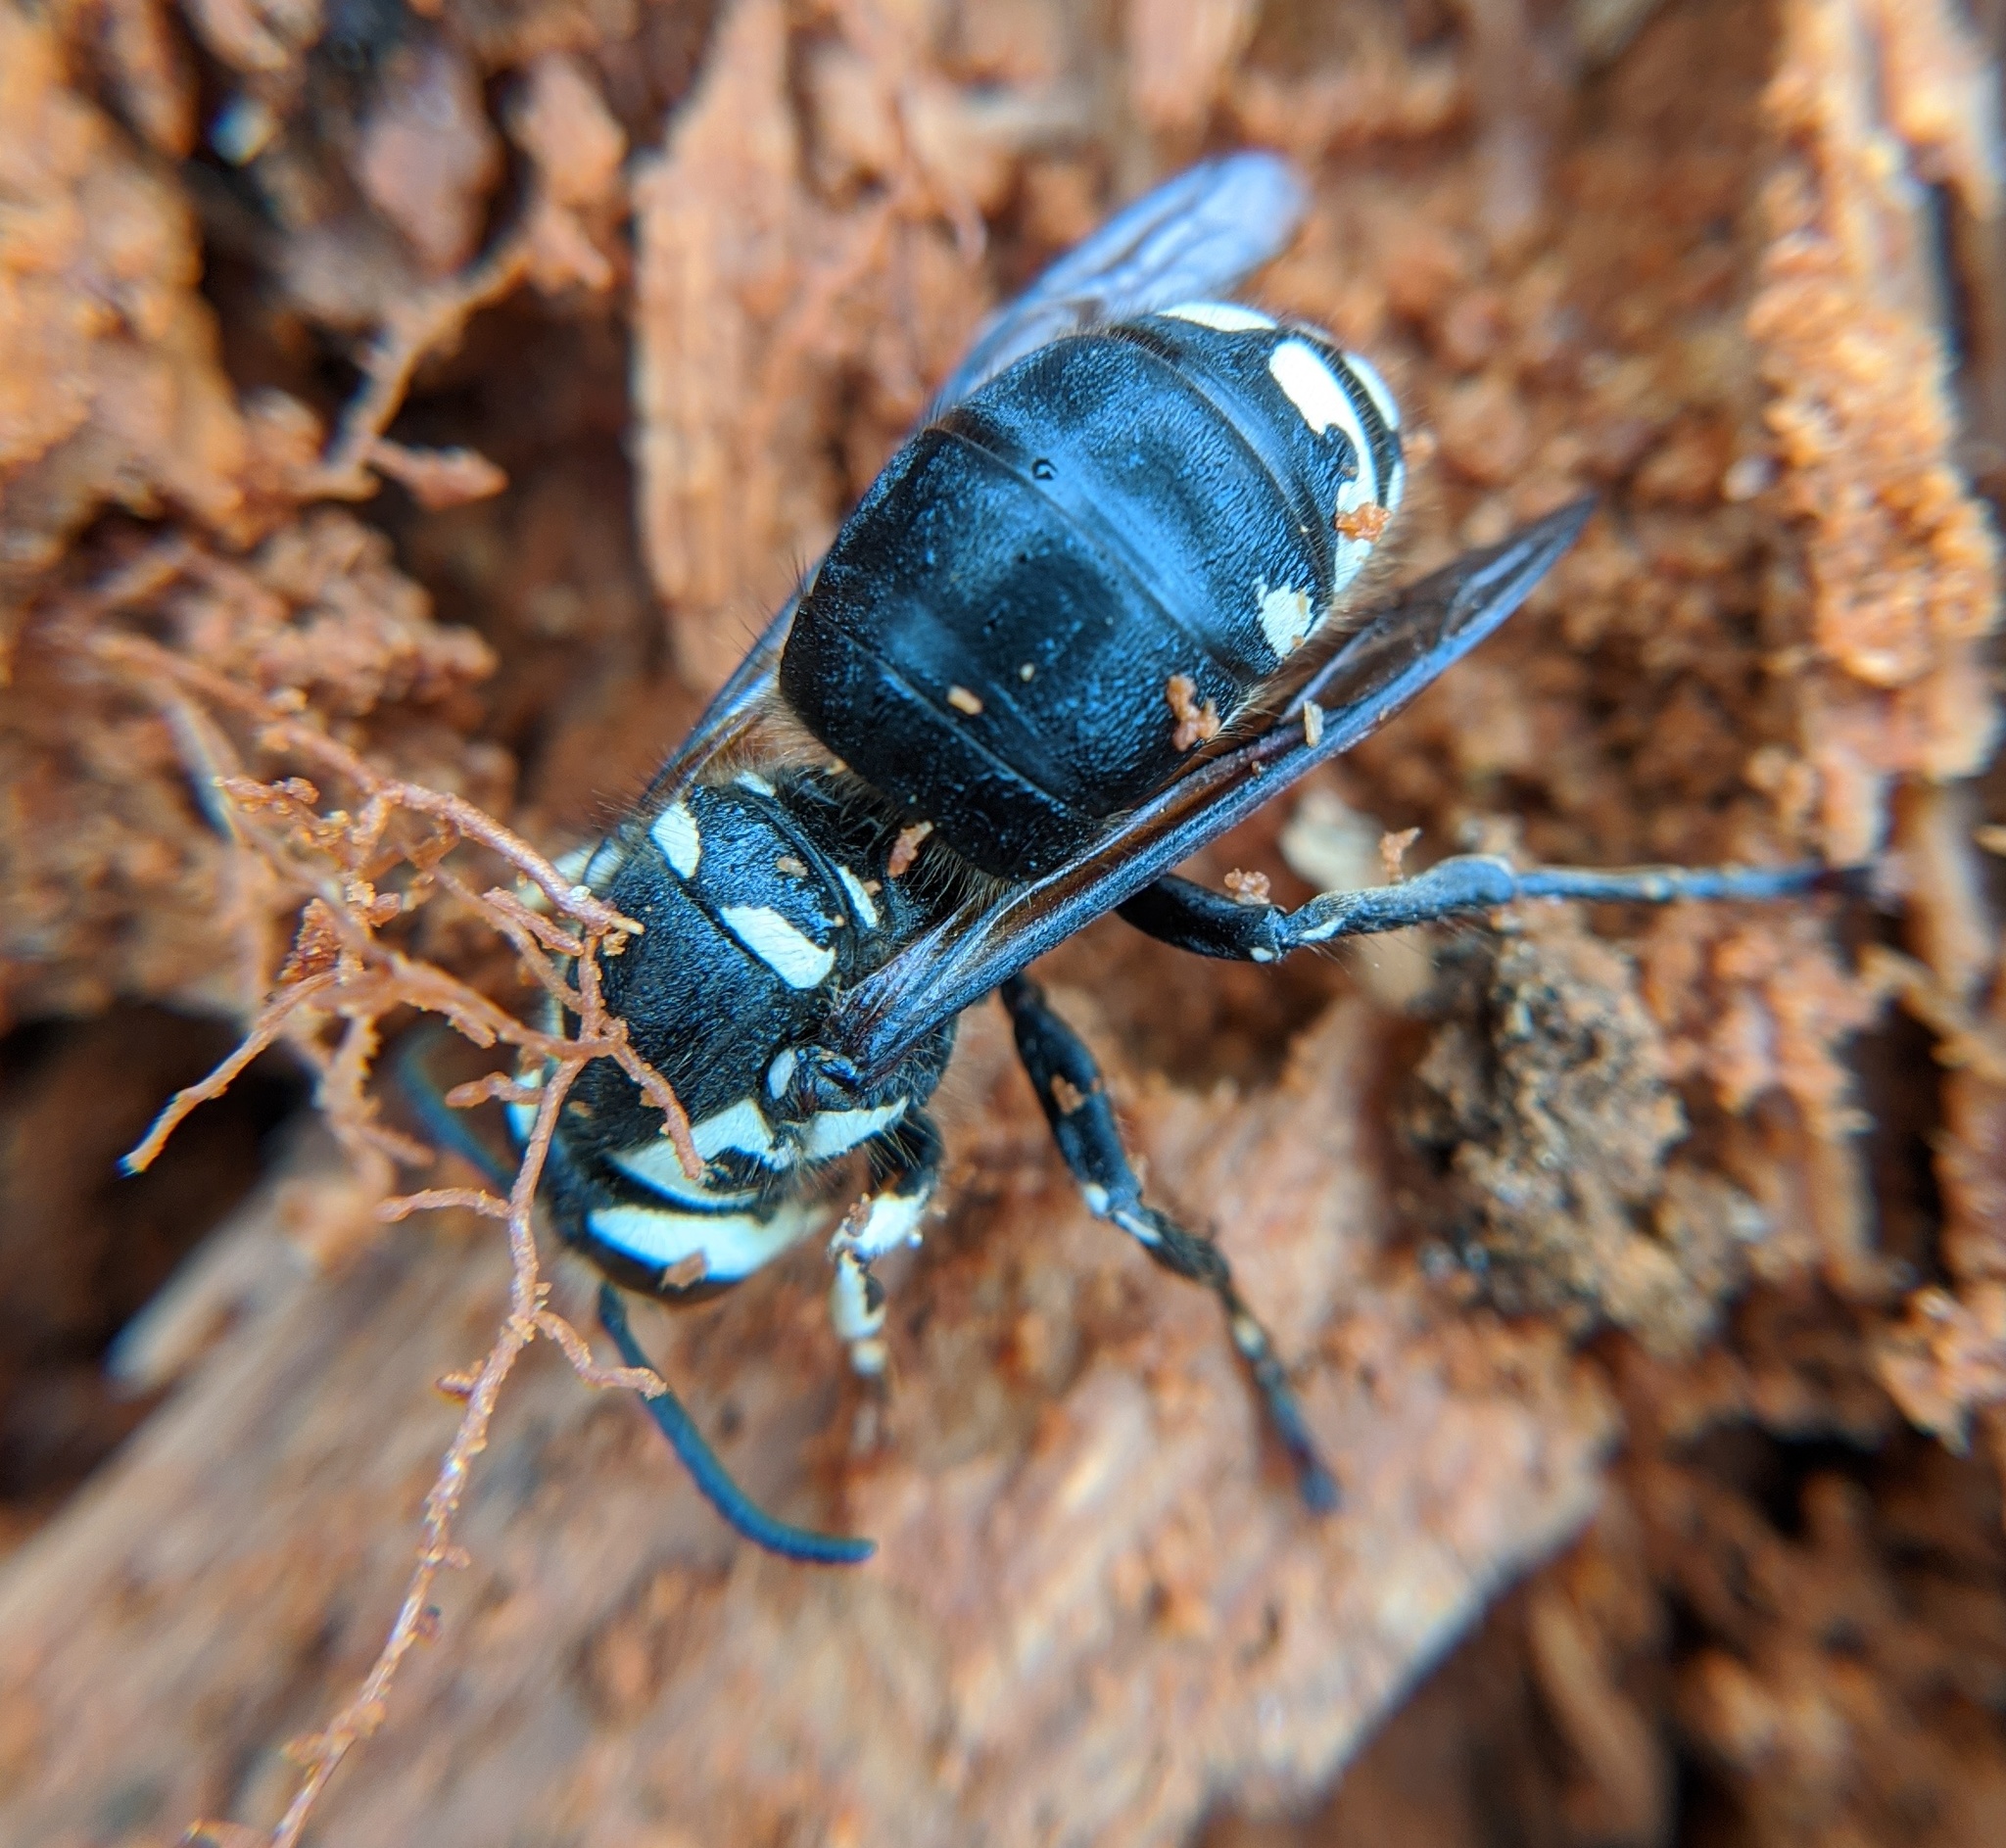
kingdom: Animalia
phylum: Arthropoda
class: Insecta
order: Hymenoptera
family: Vespidae
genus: Dolichovespula
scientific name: Dolichovespula maculata
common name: Bald-faced hornet
